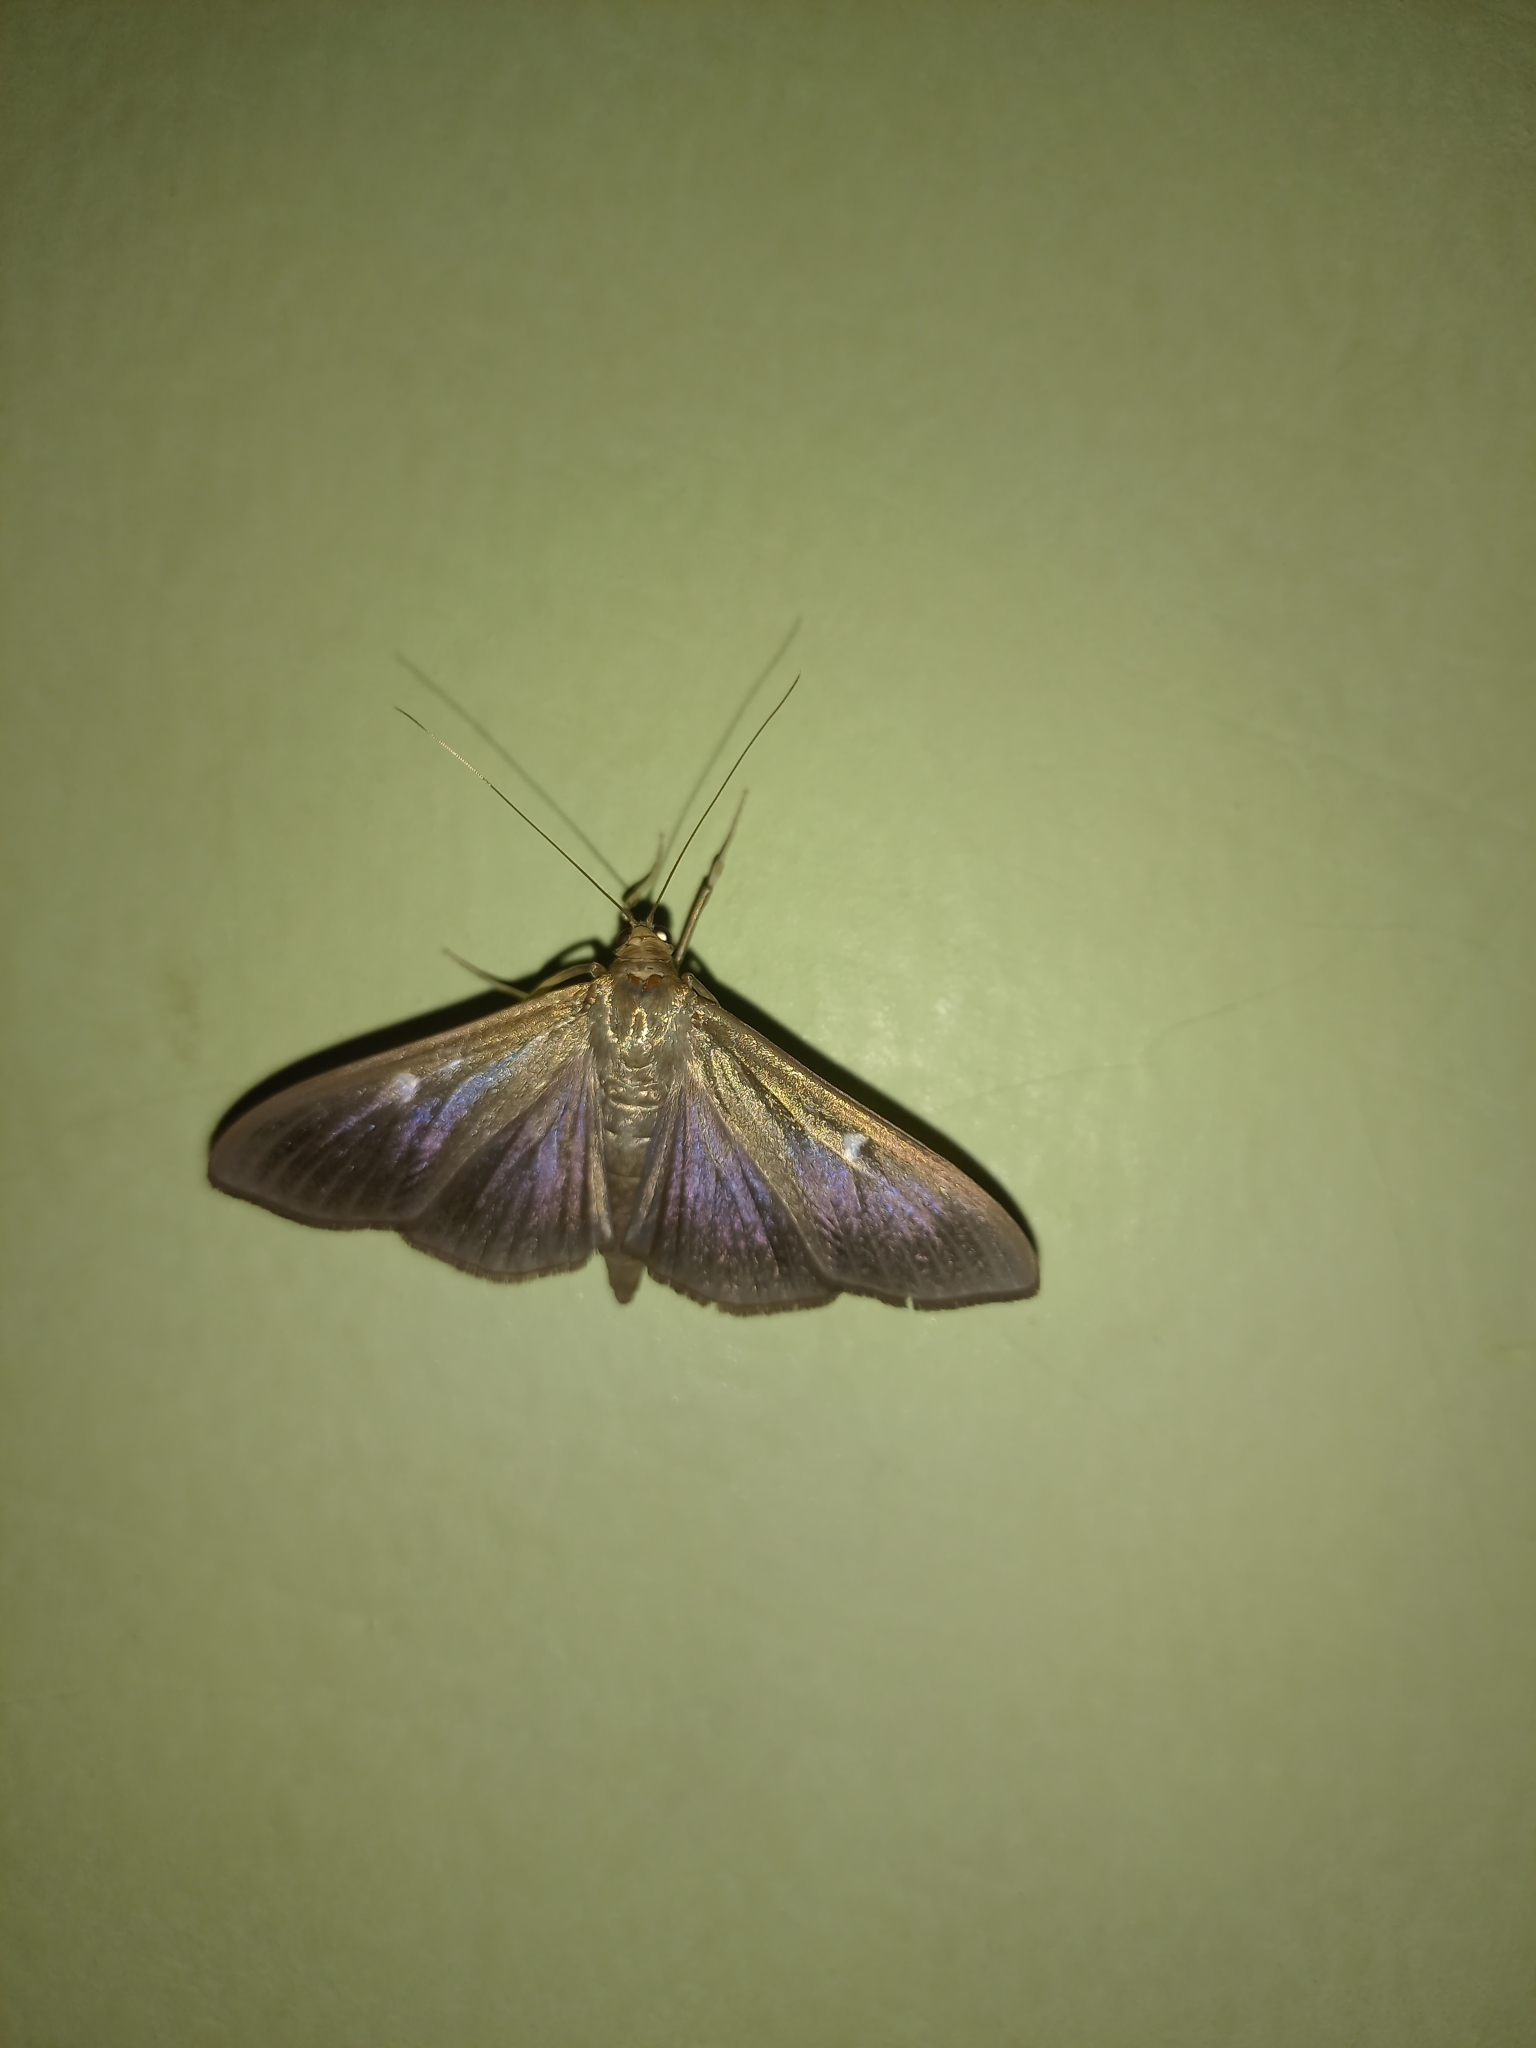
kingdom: Animalia
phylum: Arthropoda
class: Insecta
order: Lepidoptera
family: Crambidae
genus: Cydalima
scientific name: Cydalima perspectalis
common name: Box tree moth
